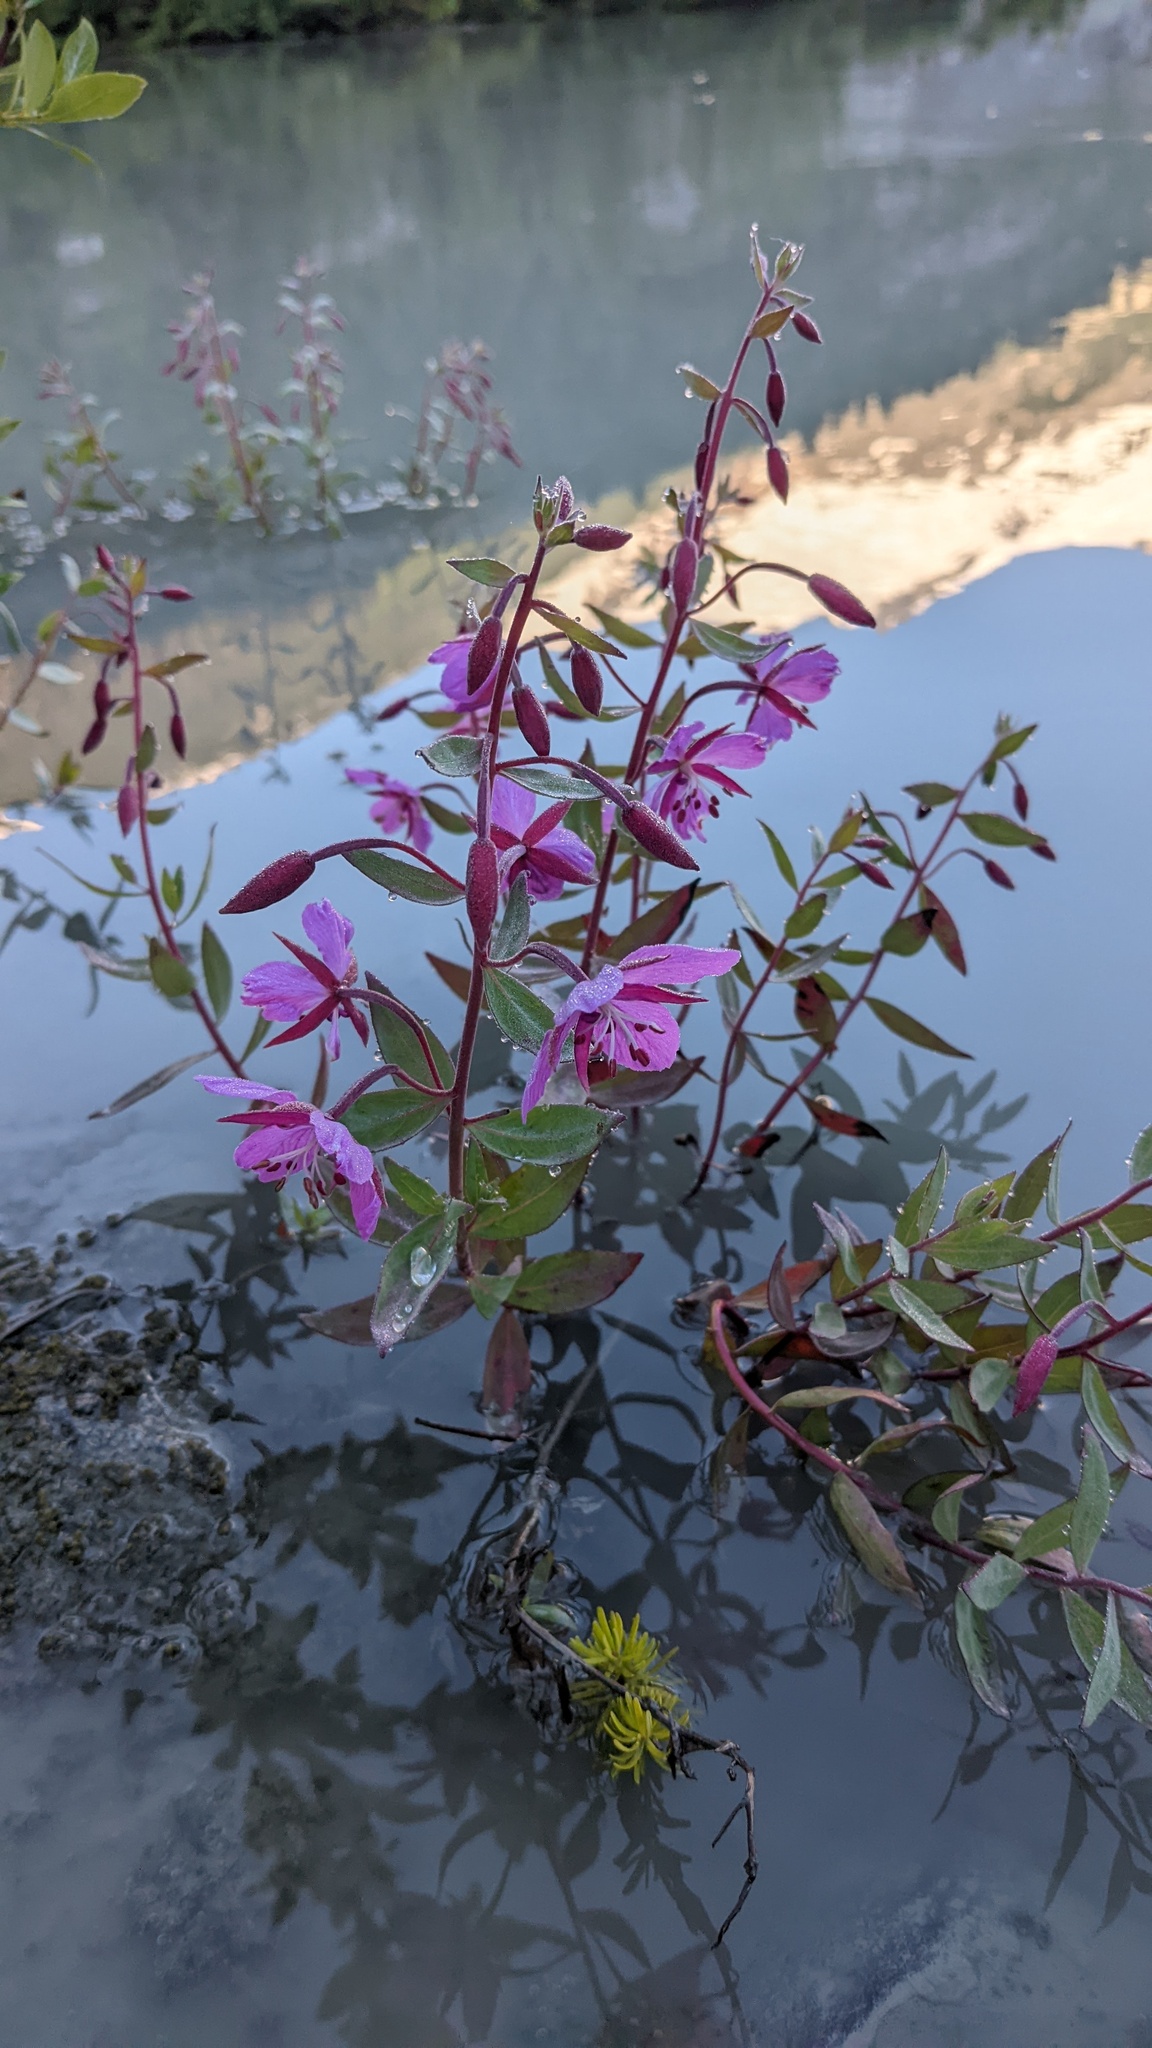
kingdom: Plantae
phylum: Tracheophyta
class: Magnoliopsida
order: Myrtales
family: Onagraceae
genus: Chamaenerion
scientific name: Chamaenerion latifolium
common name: Dwarf fireweed
